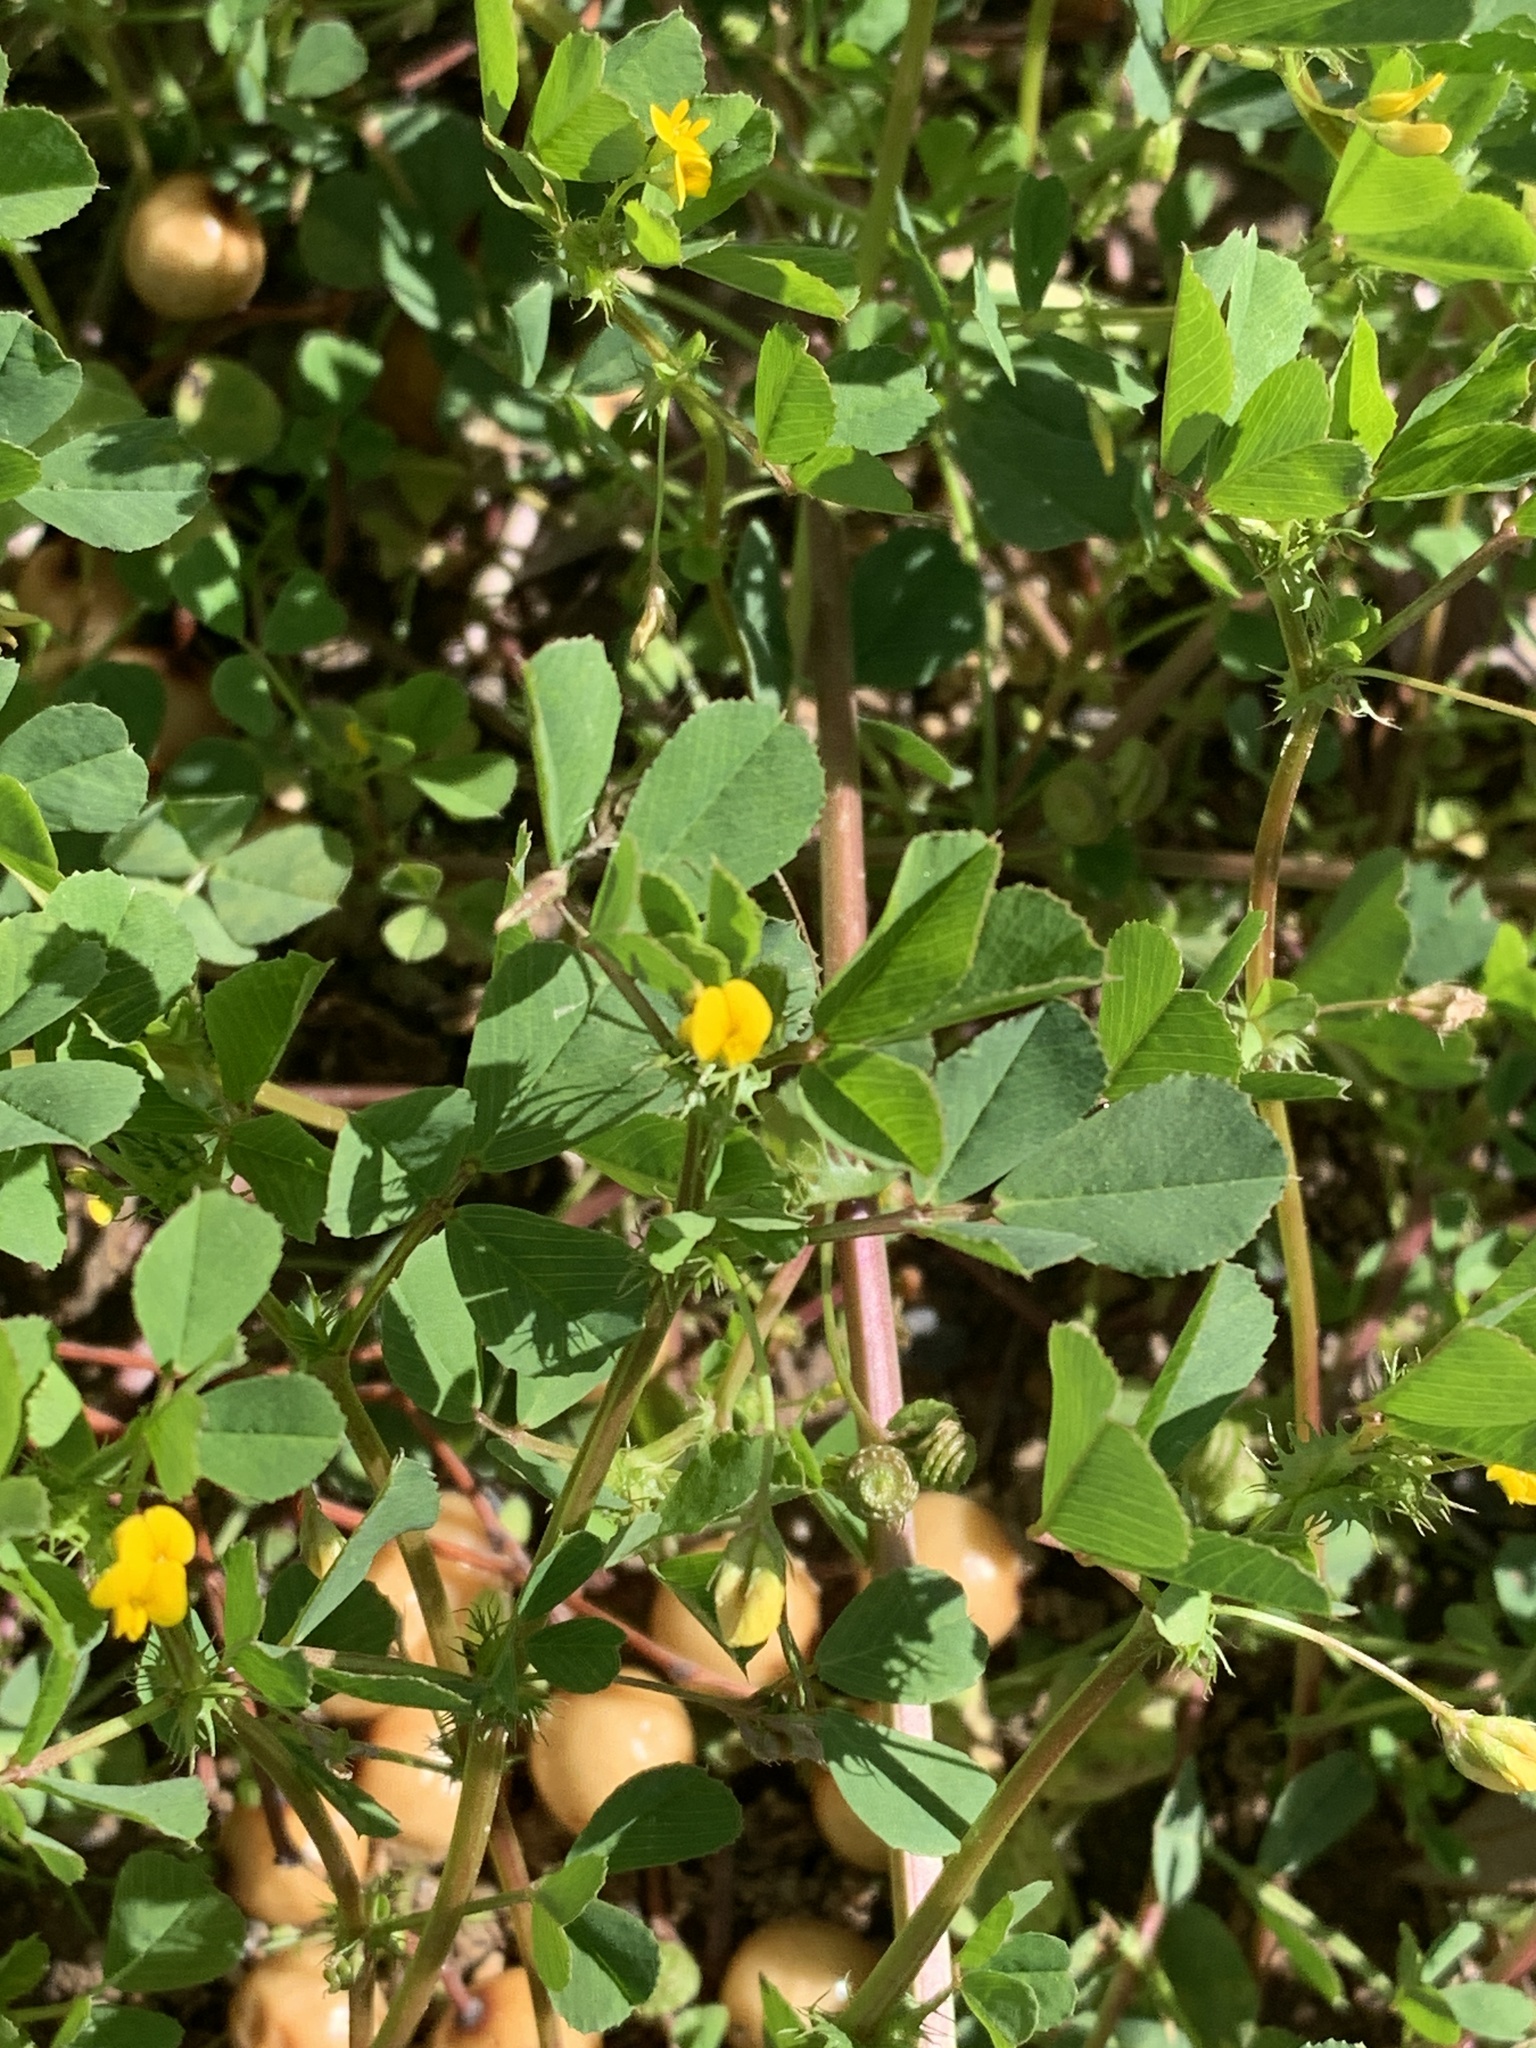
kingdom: Plantae
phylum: Tracheophyta
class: Magnoliopsida
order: Fabales
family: Fabaceae
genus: Medicago
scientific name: Medicago polymorpha
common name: Burclover
